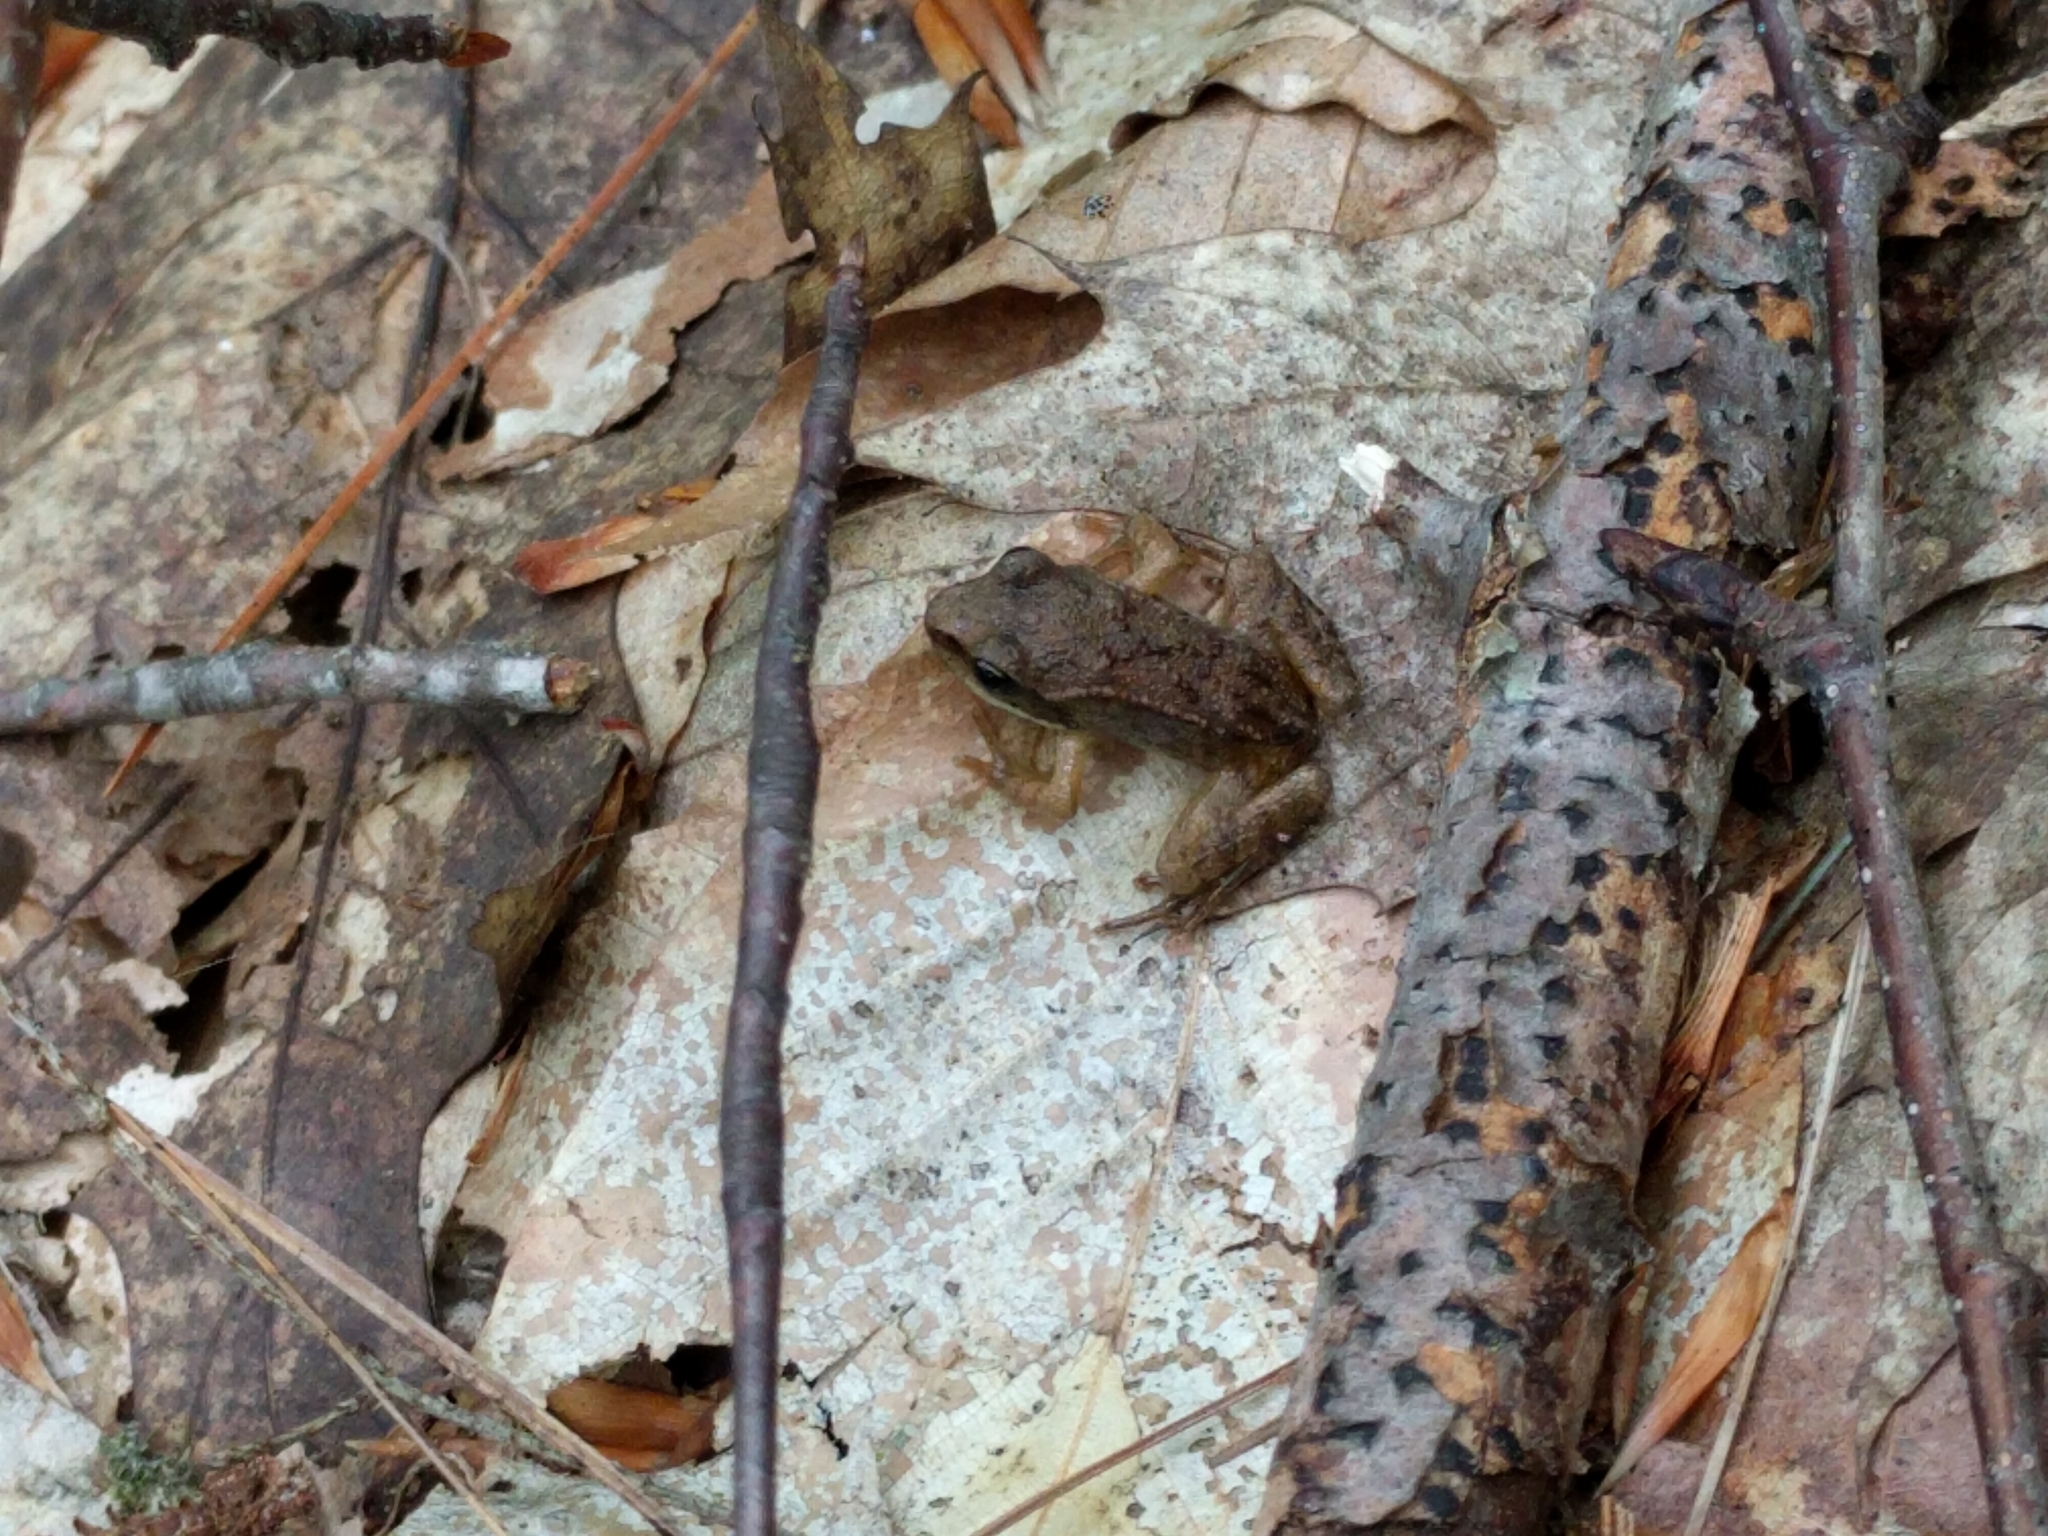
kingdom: Animalia
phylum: Chordata
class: Amphibia
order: Anura
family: Ranidae
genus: Lithobates
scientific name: Lithobates sylvaticus
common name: Wood frog
